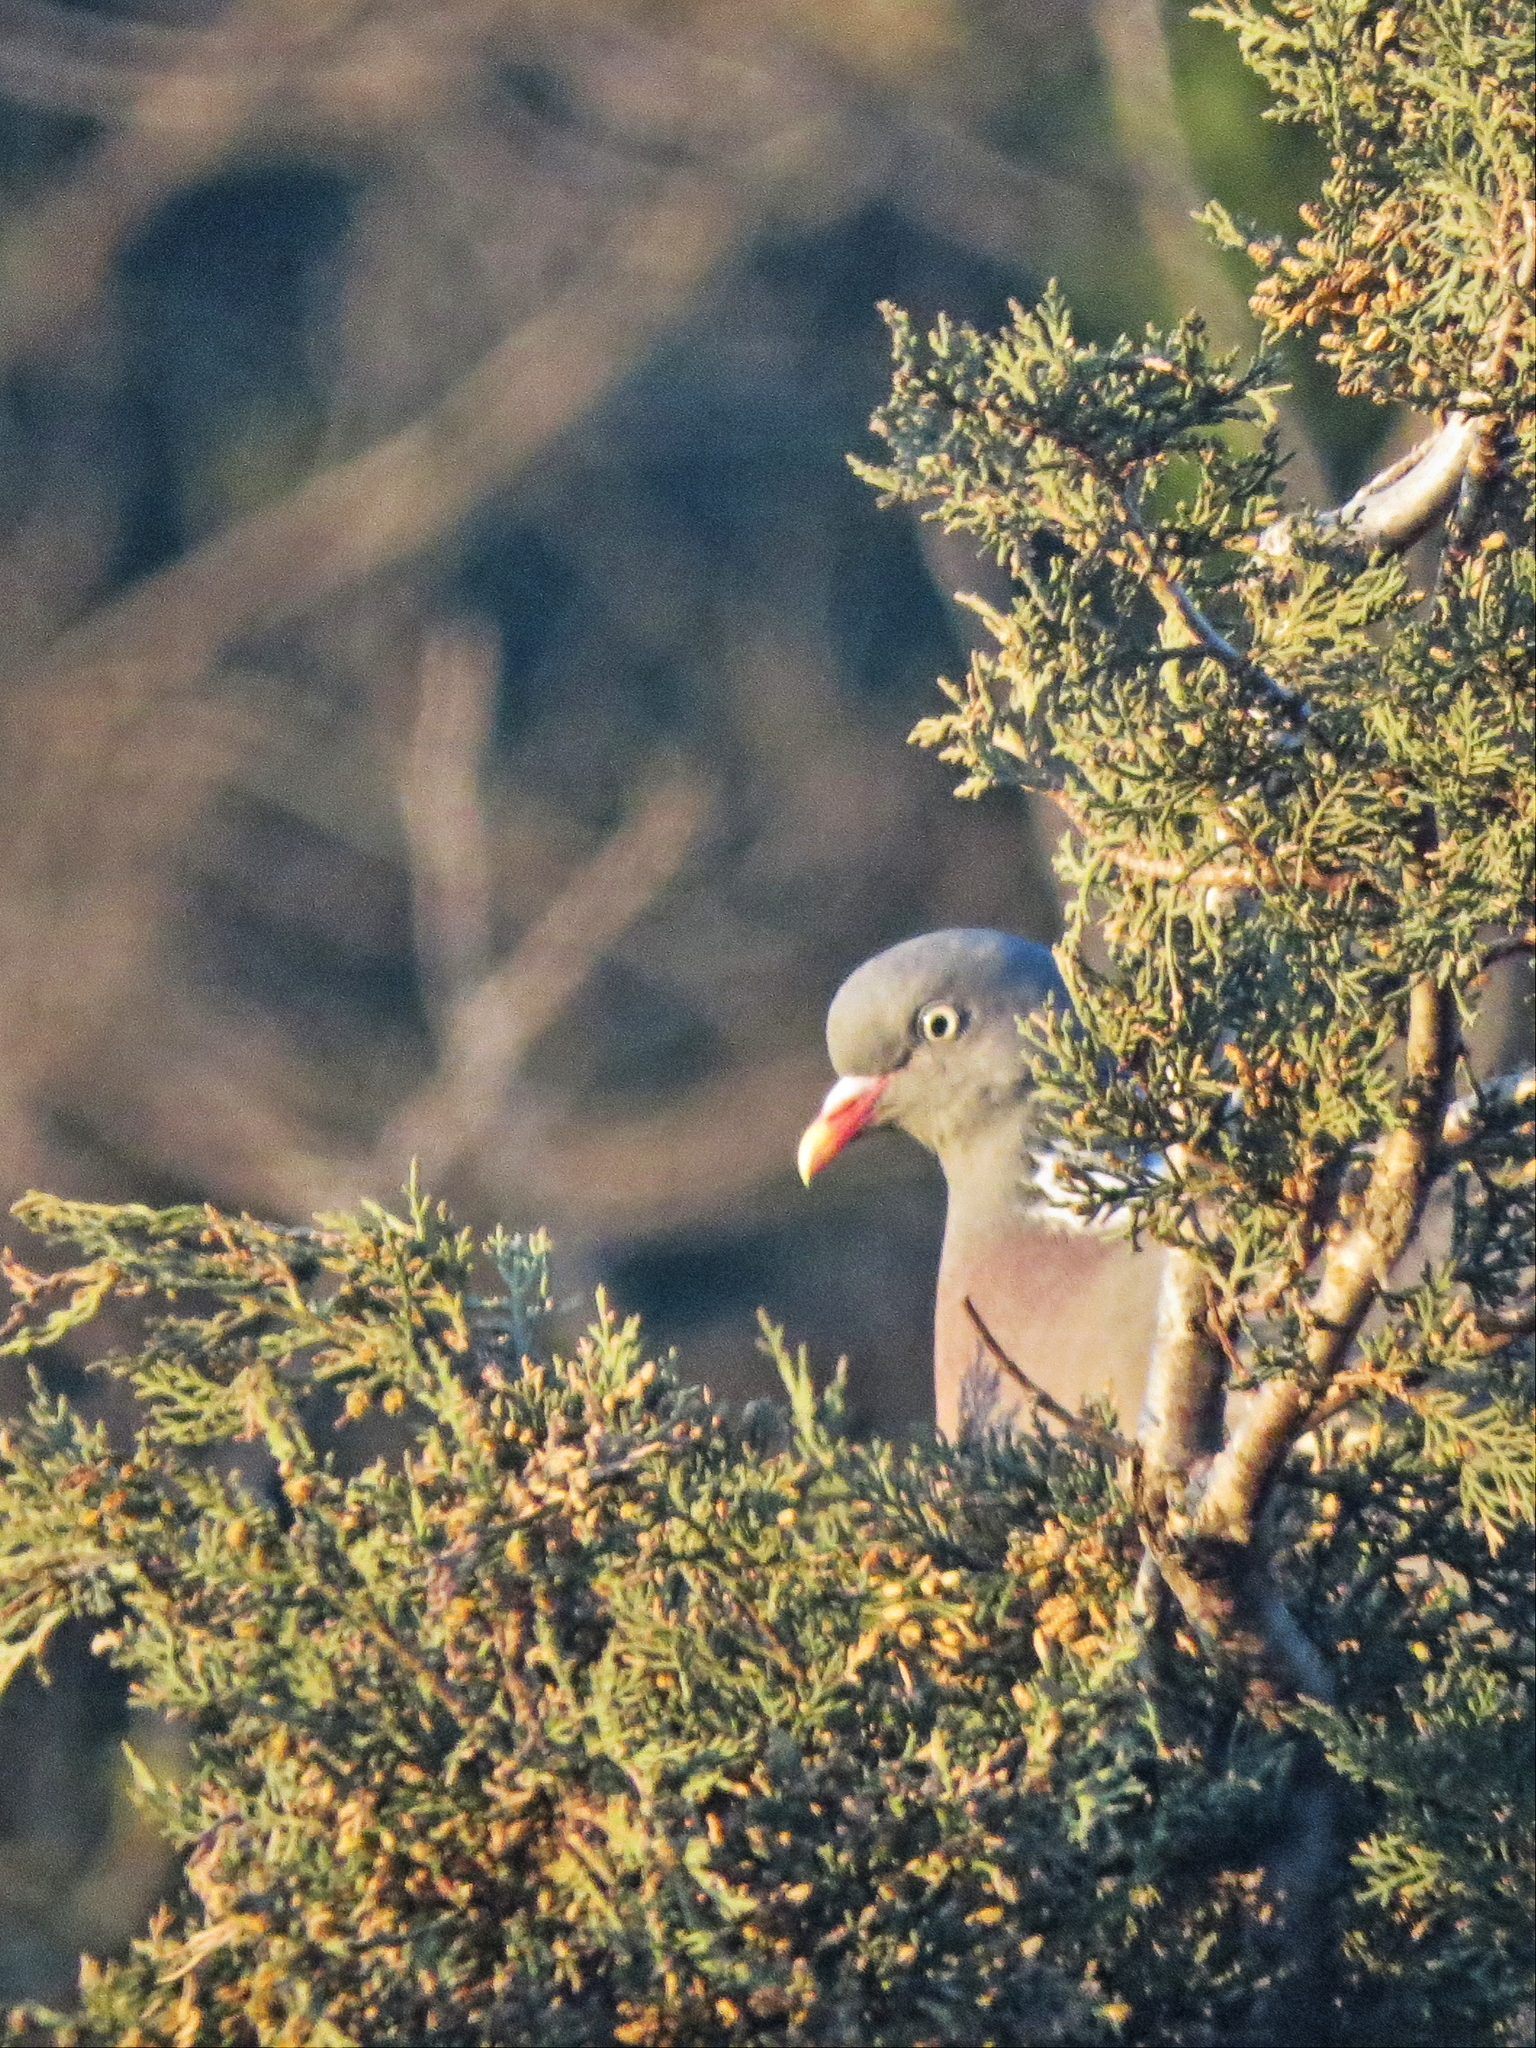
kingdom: Animalia
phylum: Chordata
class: Aves
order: Columbiformes
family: Columbidae
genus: Columba
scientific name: Columba palumbus
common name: Common wood pigeon
